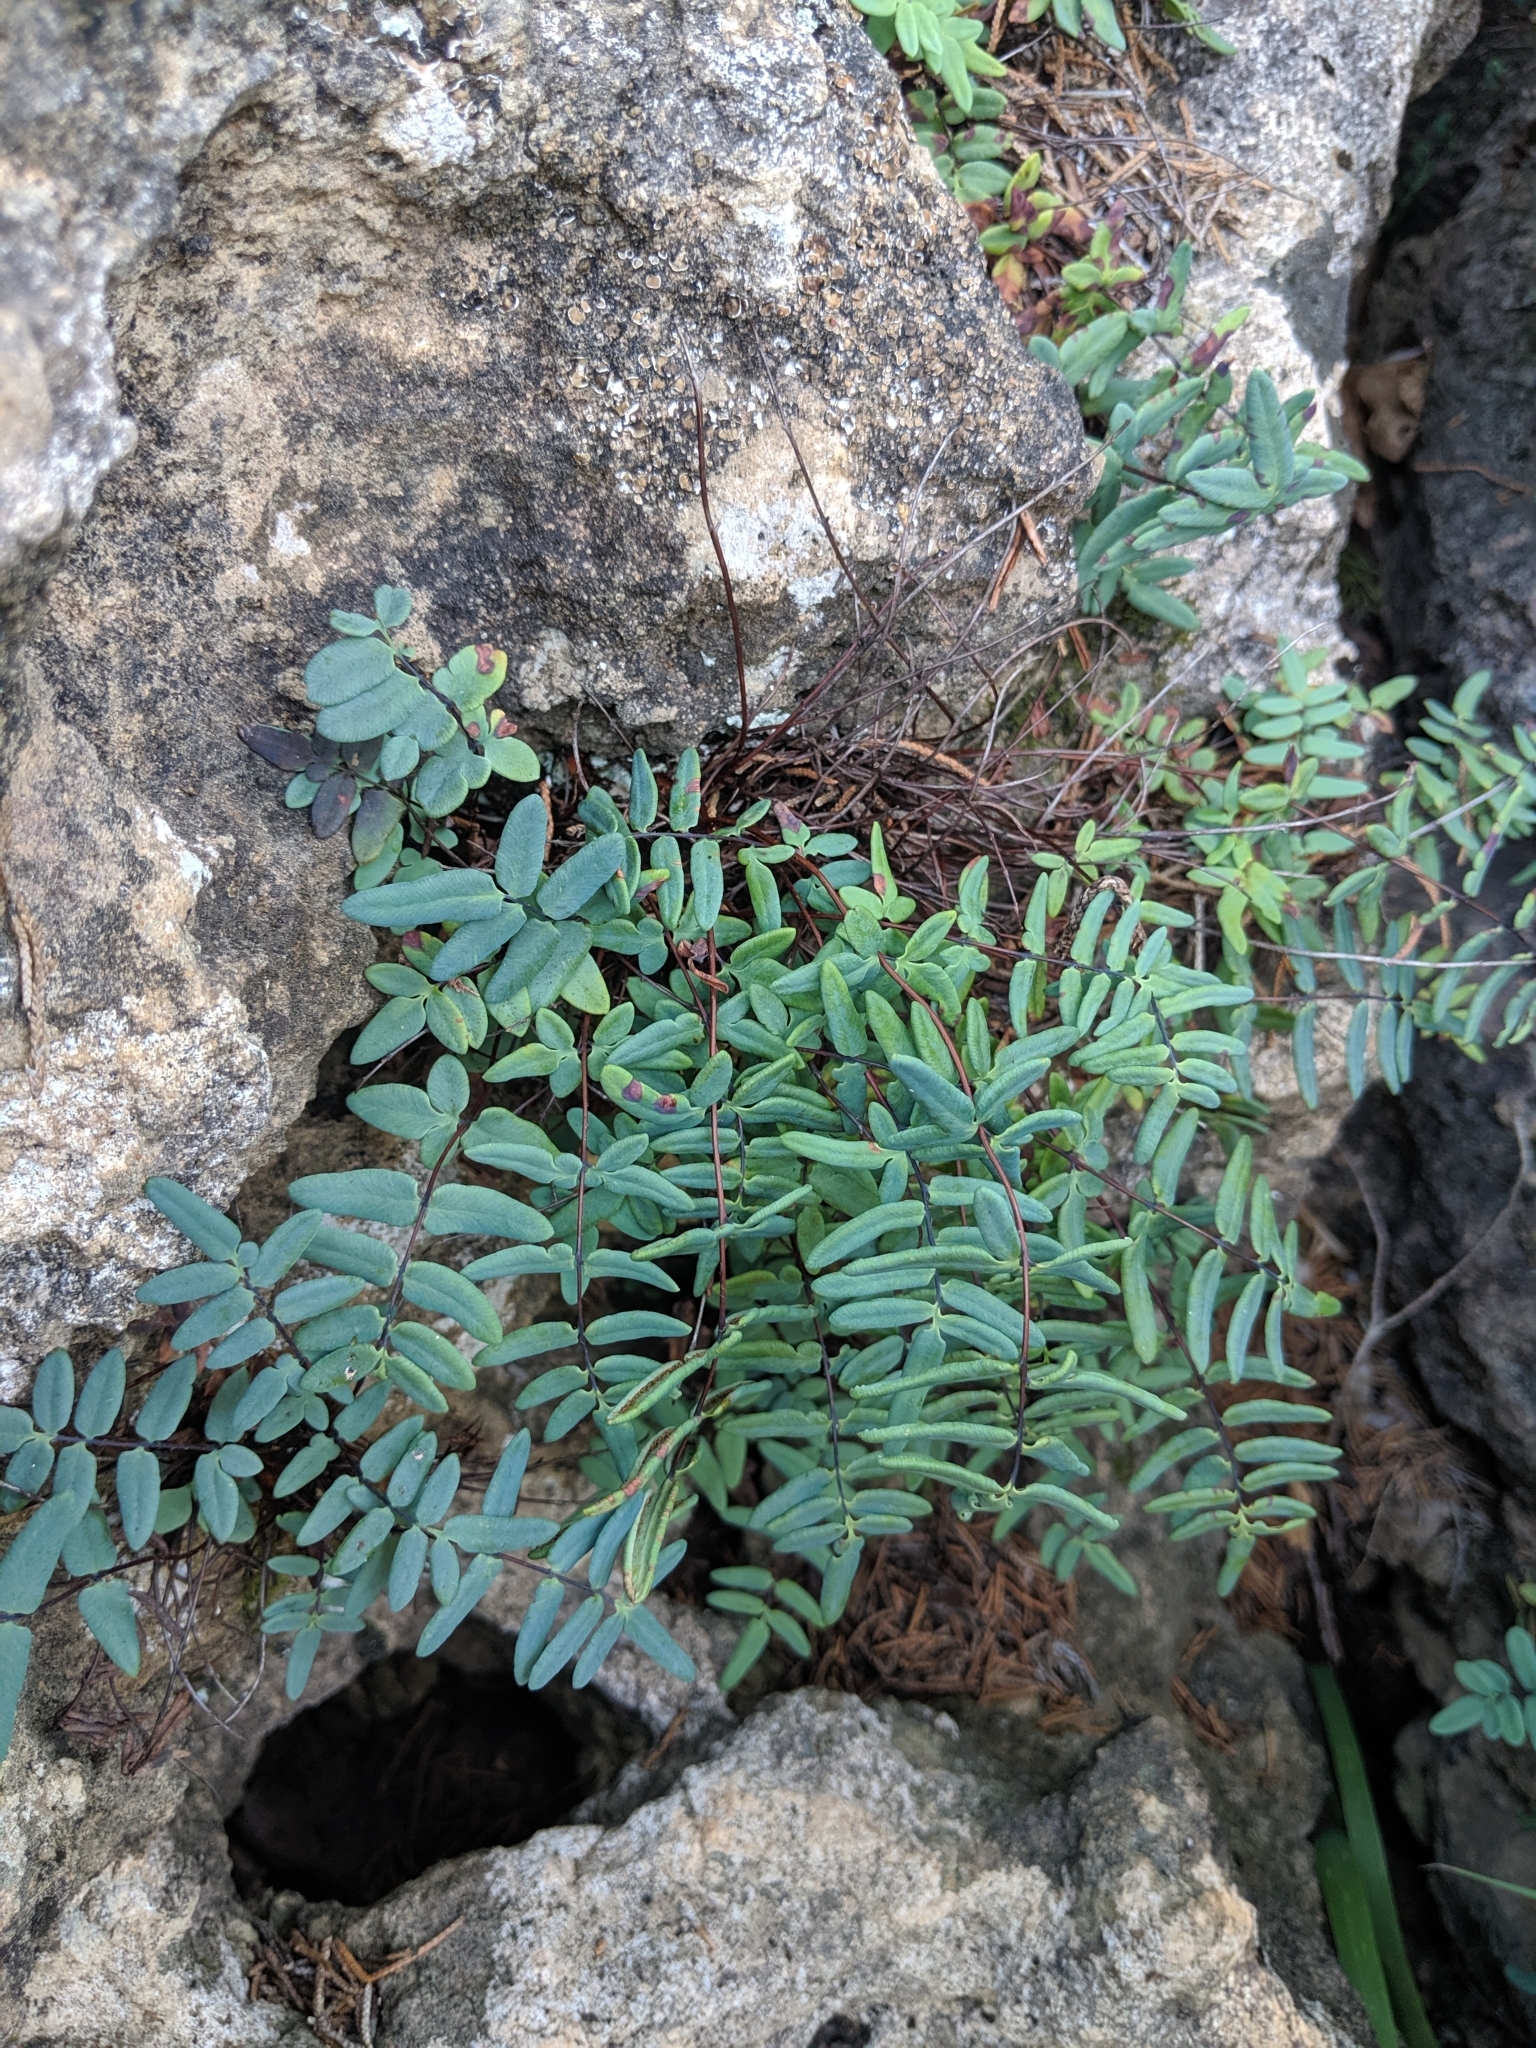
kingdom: Plantae
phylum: Tracheophyta
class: Polypodiopsida
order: Polypodiales
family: Pteridaceae
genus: Pellaea
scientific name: Pellaea glabella
